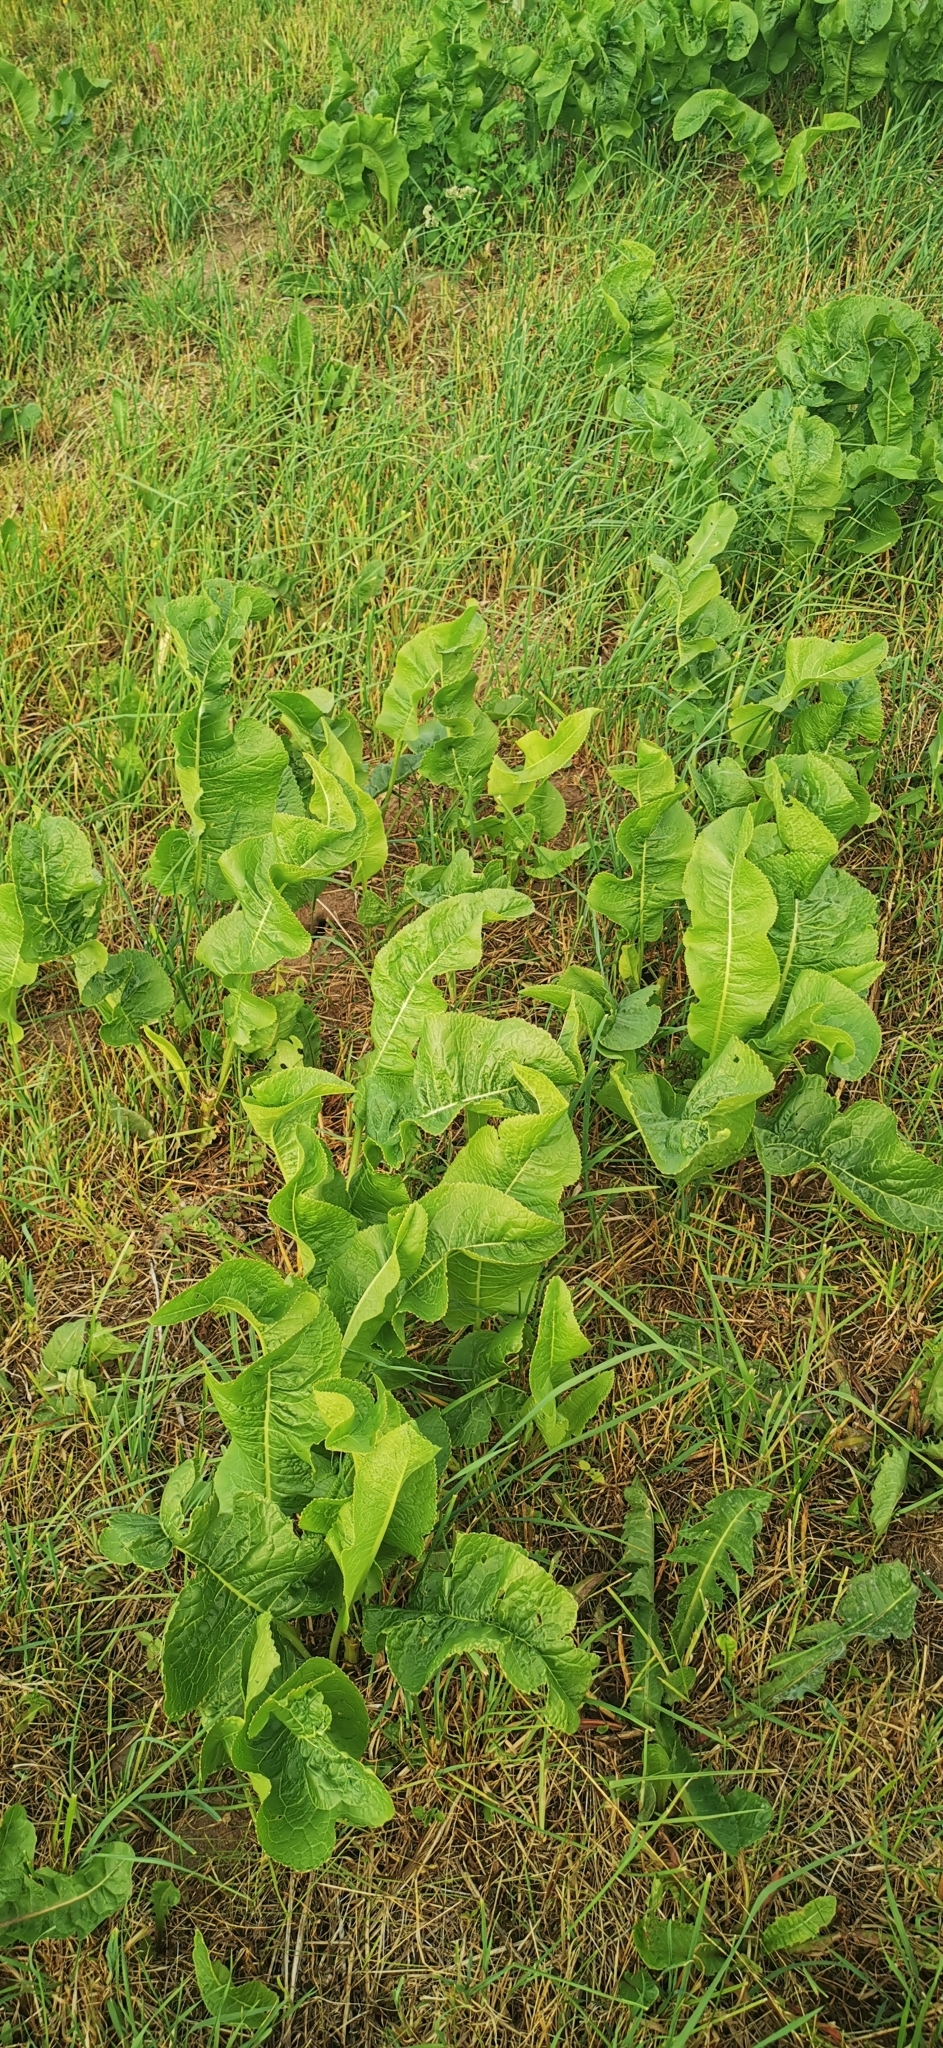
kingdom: Plantae
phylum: Tracheophyta
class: Magnoliopsida
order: Brassicales
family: Brassicaceae
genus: Armoracia
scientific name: Armoracia rusticana
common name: Horseradish
